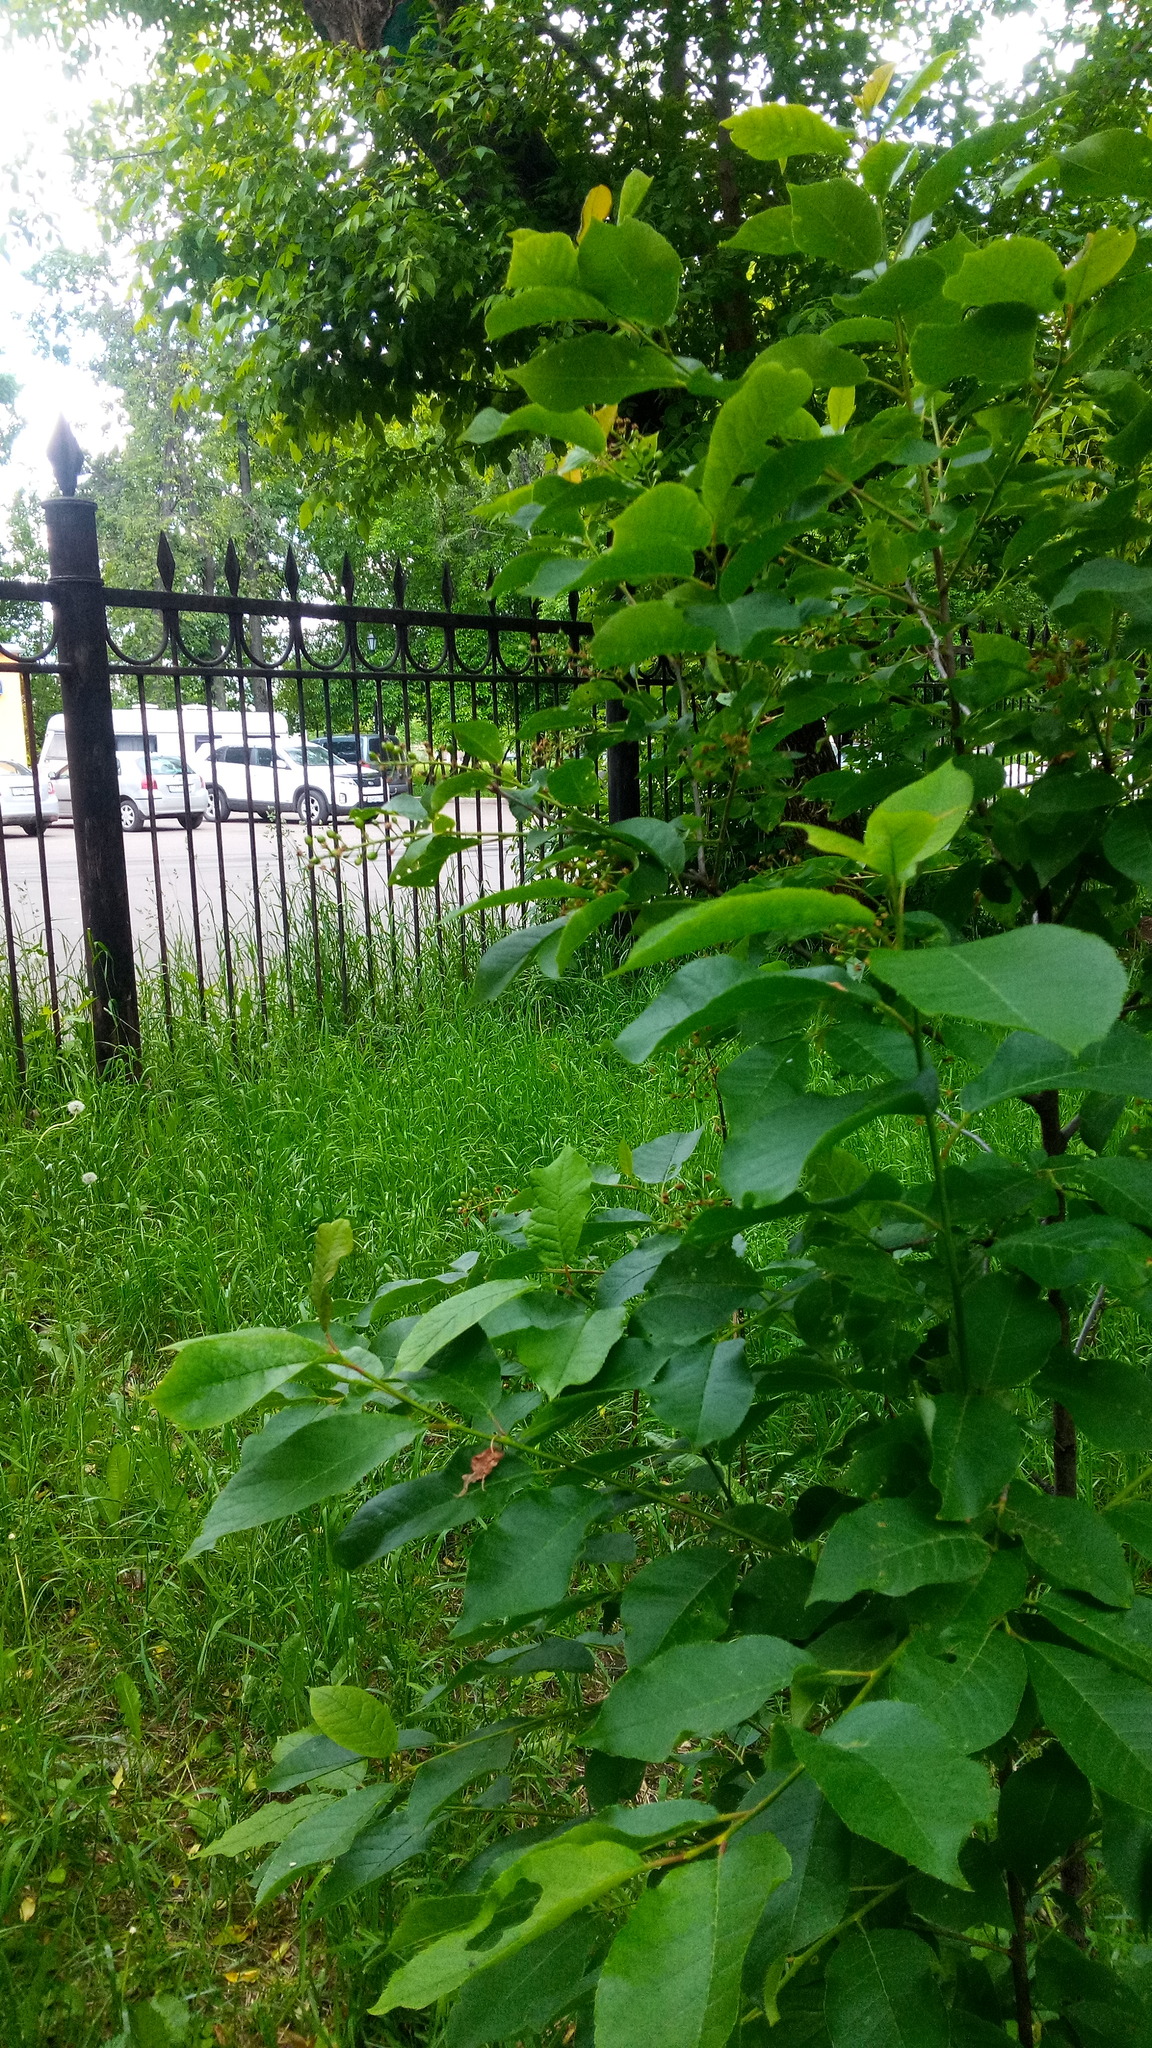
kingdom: Plantae
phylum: Tracheophyta
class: Magnoliopsida
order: Rosales
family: Rosaceae
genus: Prunus
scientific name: Prunus padus
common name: Bird cherry
